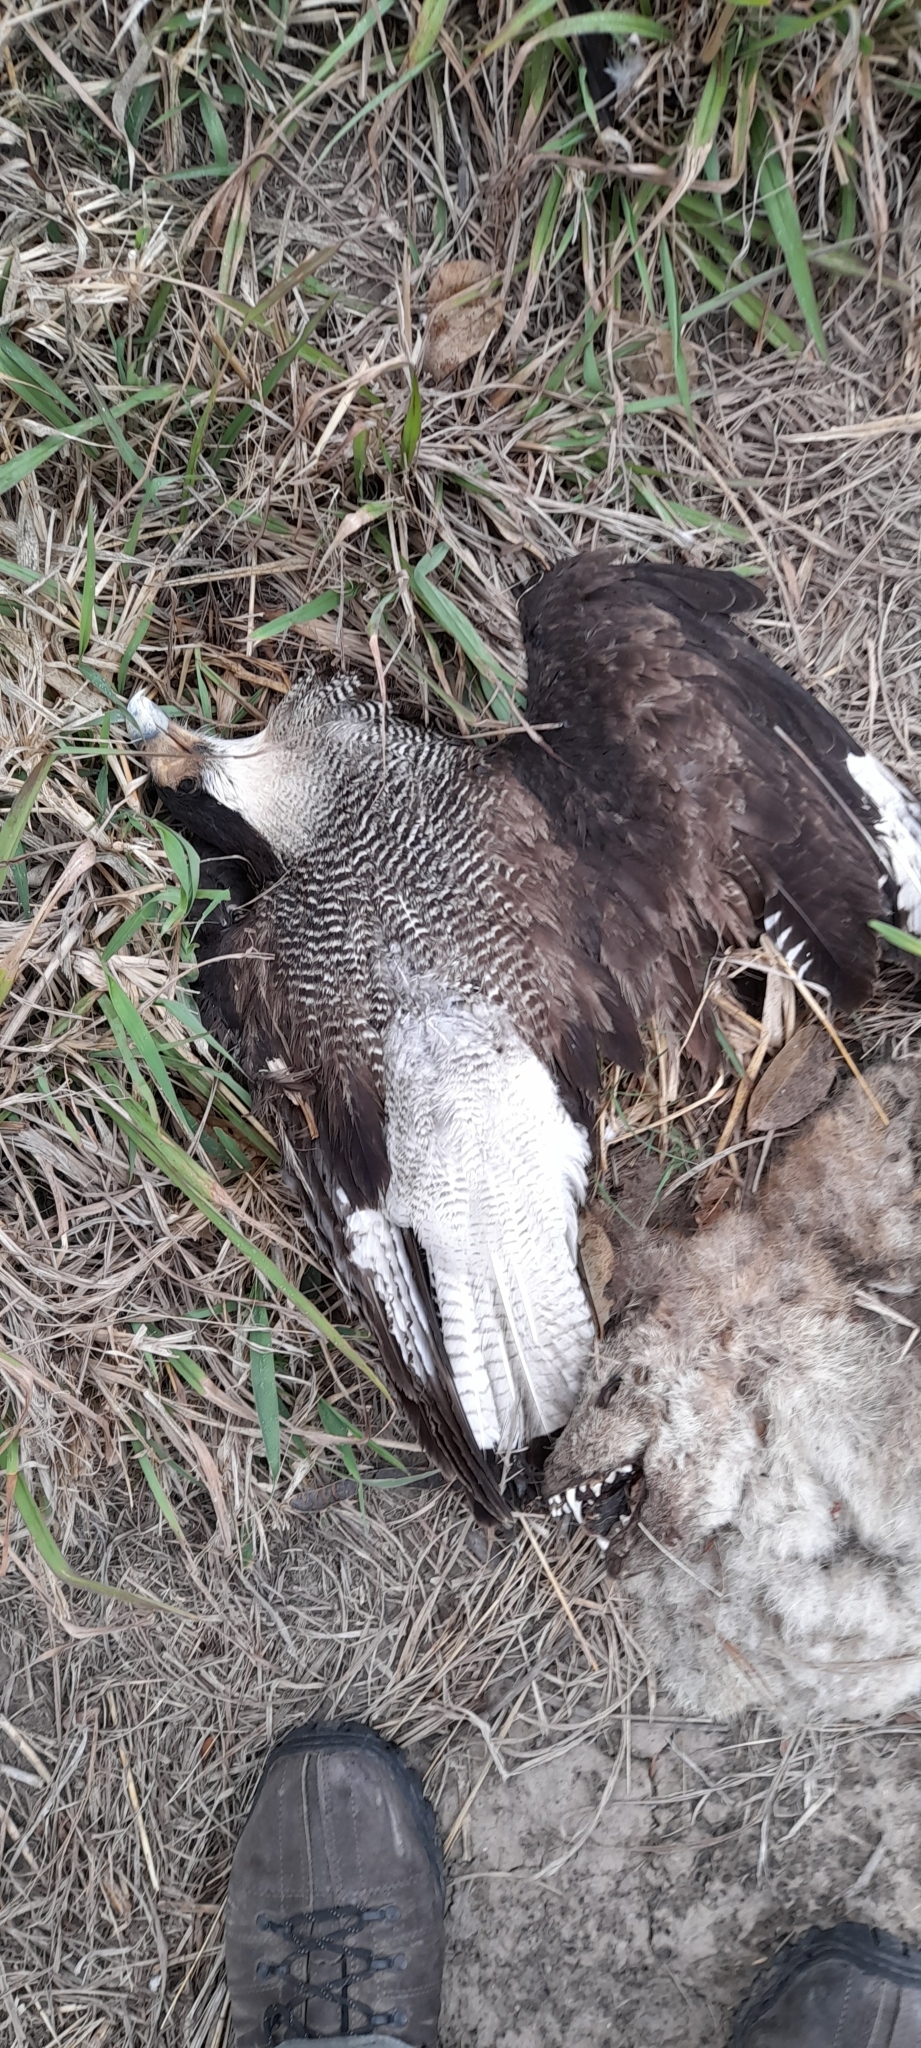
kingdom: Animalia
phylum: Chordata
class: Aves
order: Falconiformes
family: Falconidae
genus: Caracara
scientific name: Caracara plancus
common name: Southern caracara
